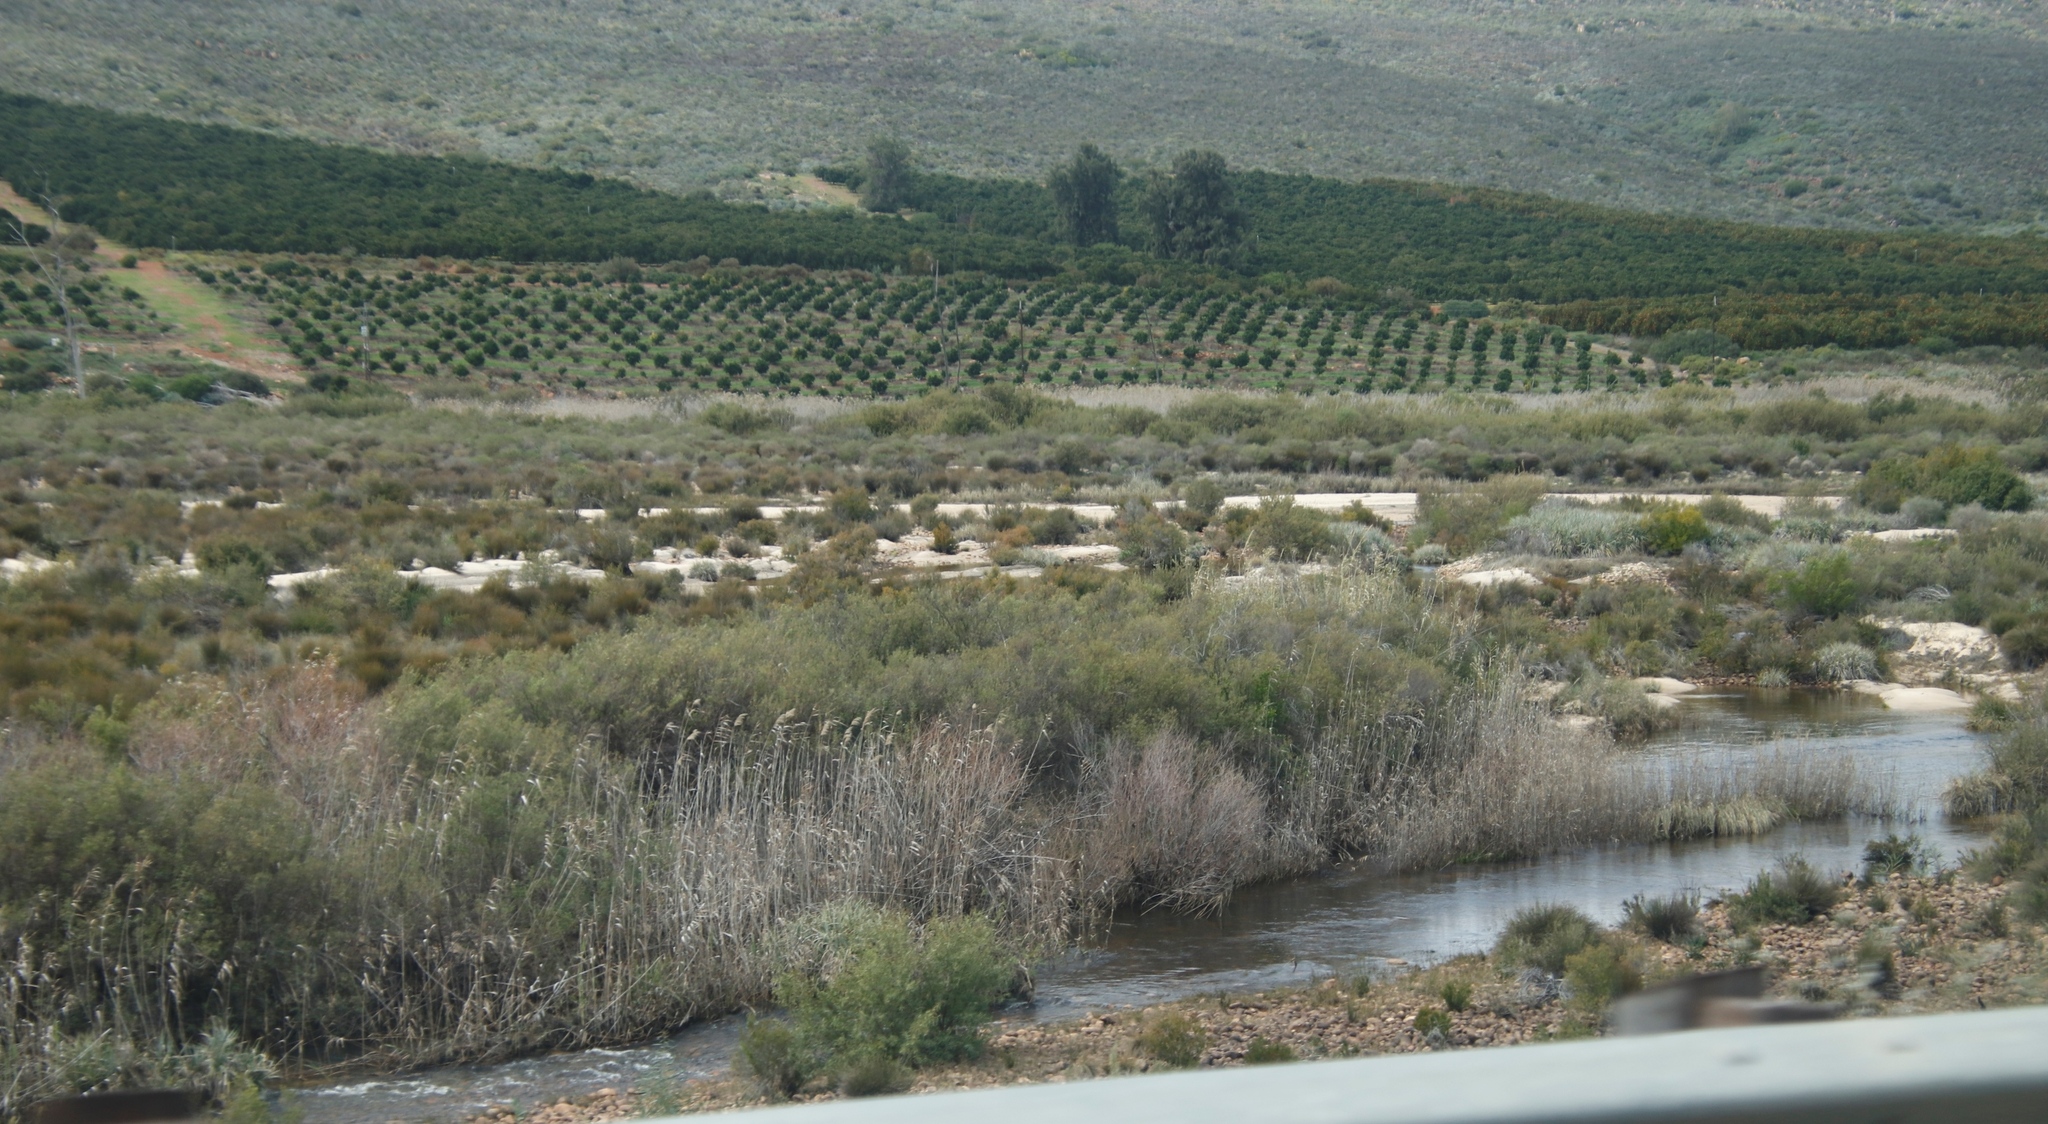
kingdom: Plantae
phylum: Tracheophyta
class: Liliopsida
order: Poales
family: Poaceae
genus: Phragmites
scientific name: Phragmites australis
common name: Common reed
